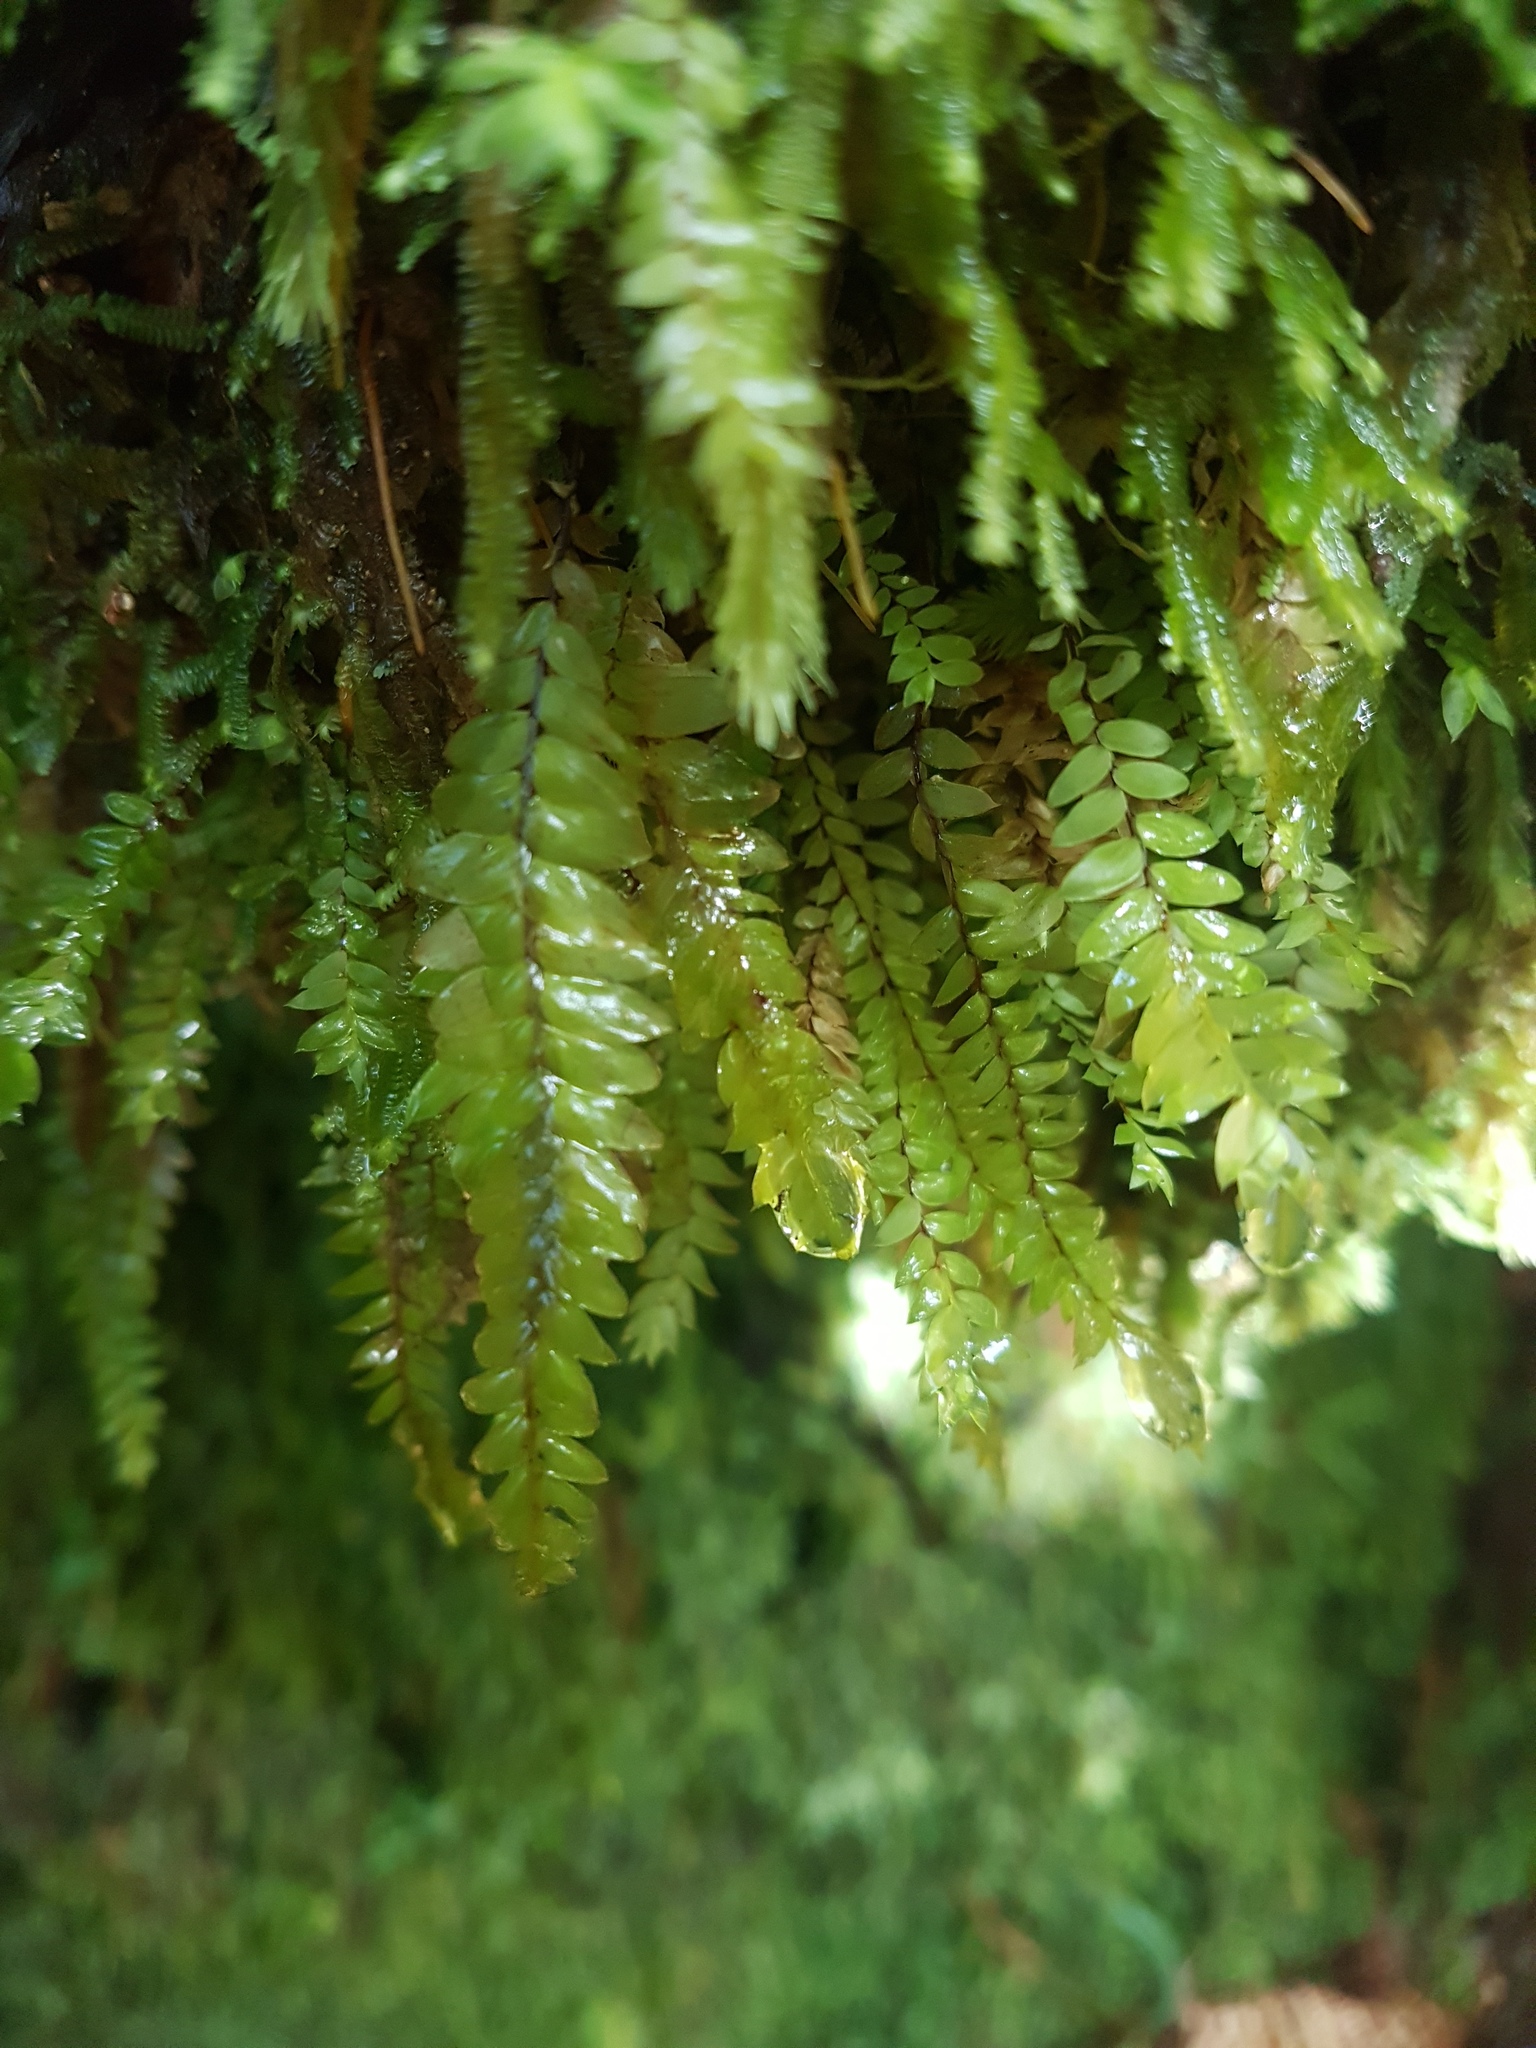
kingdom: Plantae
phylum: Bryophyta
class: Bryopsida
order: Hypopterygiales
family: Hypopterygiaceae
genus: Cyathophorum
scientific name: Cyathophorum bulbosum
